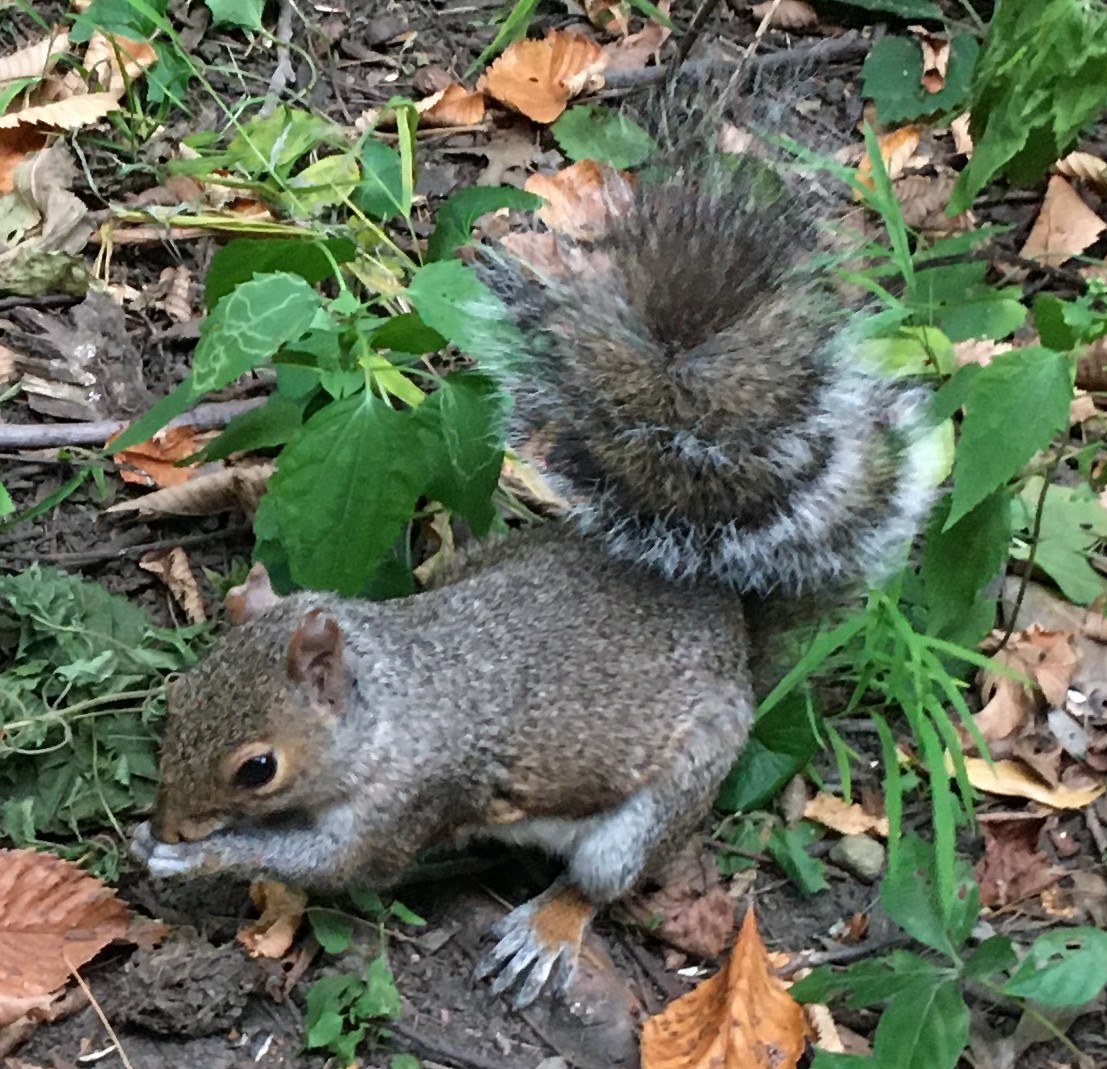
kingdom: Animalia
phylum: Chordata
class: Mammalia
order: Rodentia
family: Sciuridae
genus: Sciurus
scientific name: Sciurus carolinensis
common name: Eastern gray squirrel
